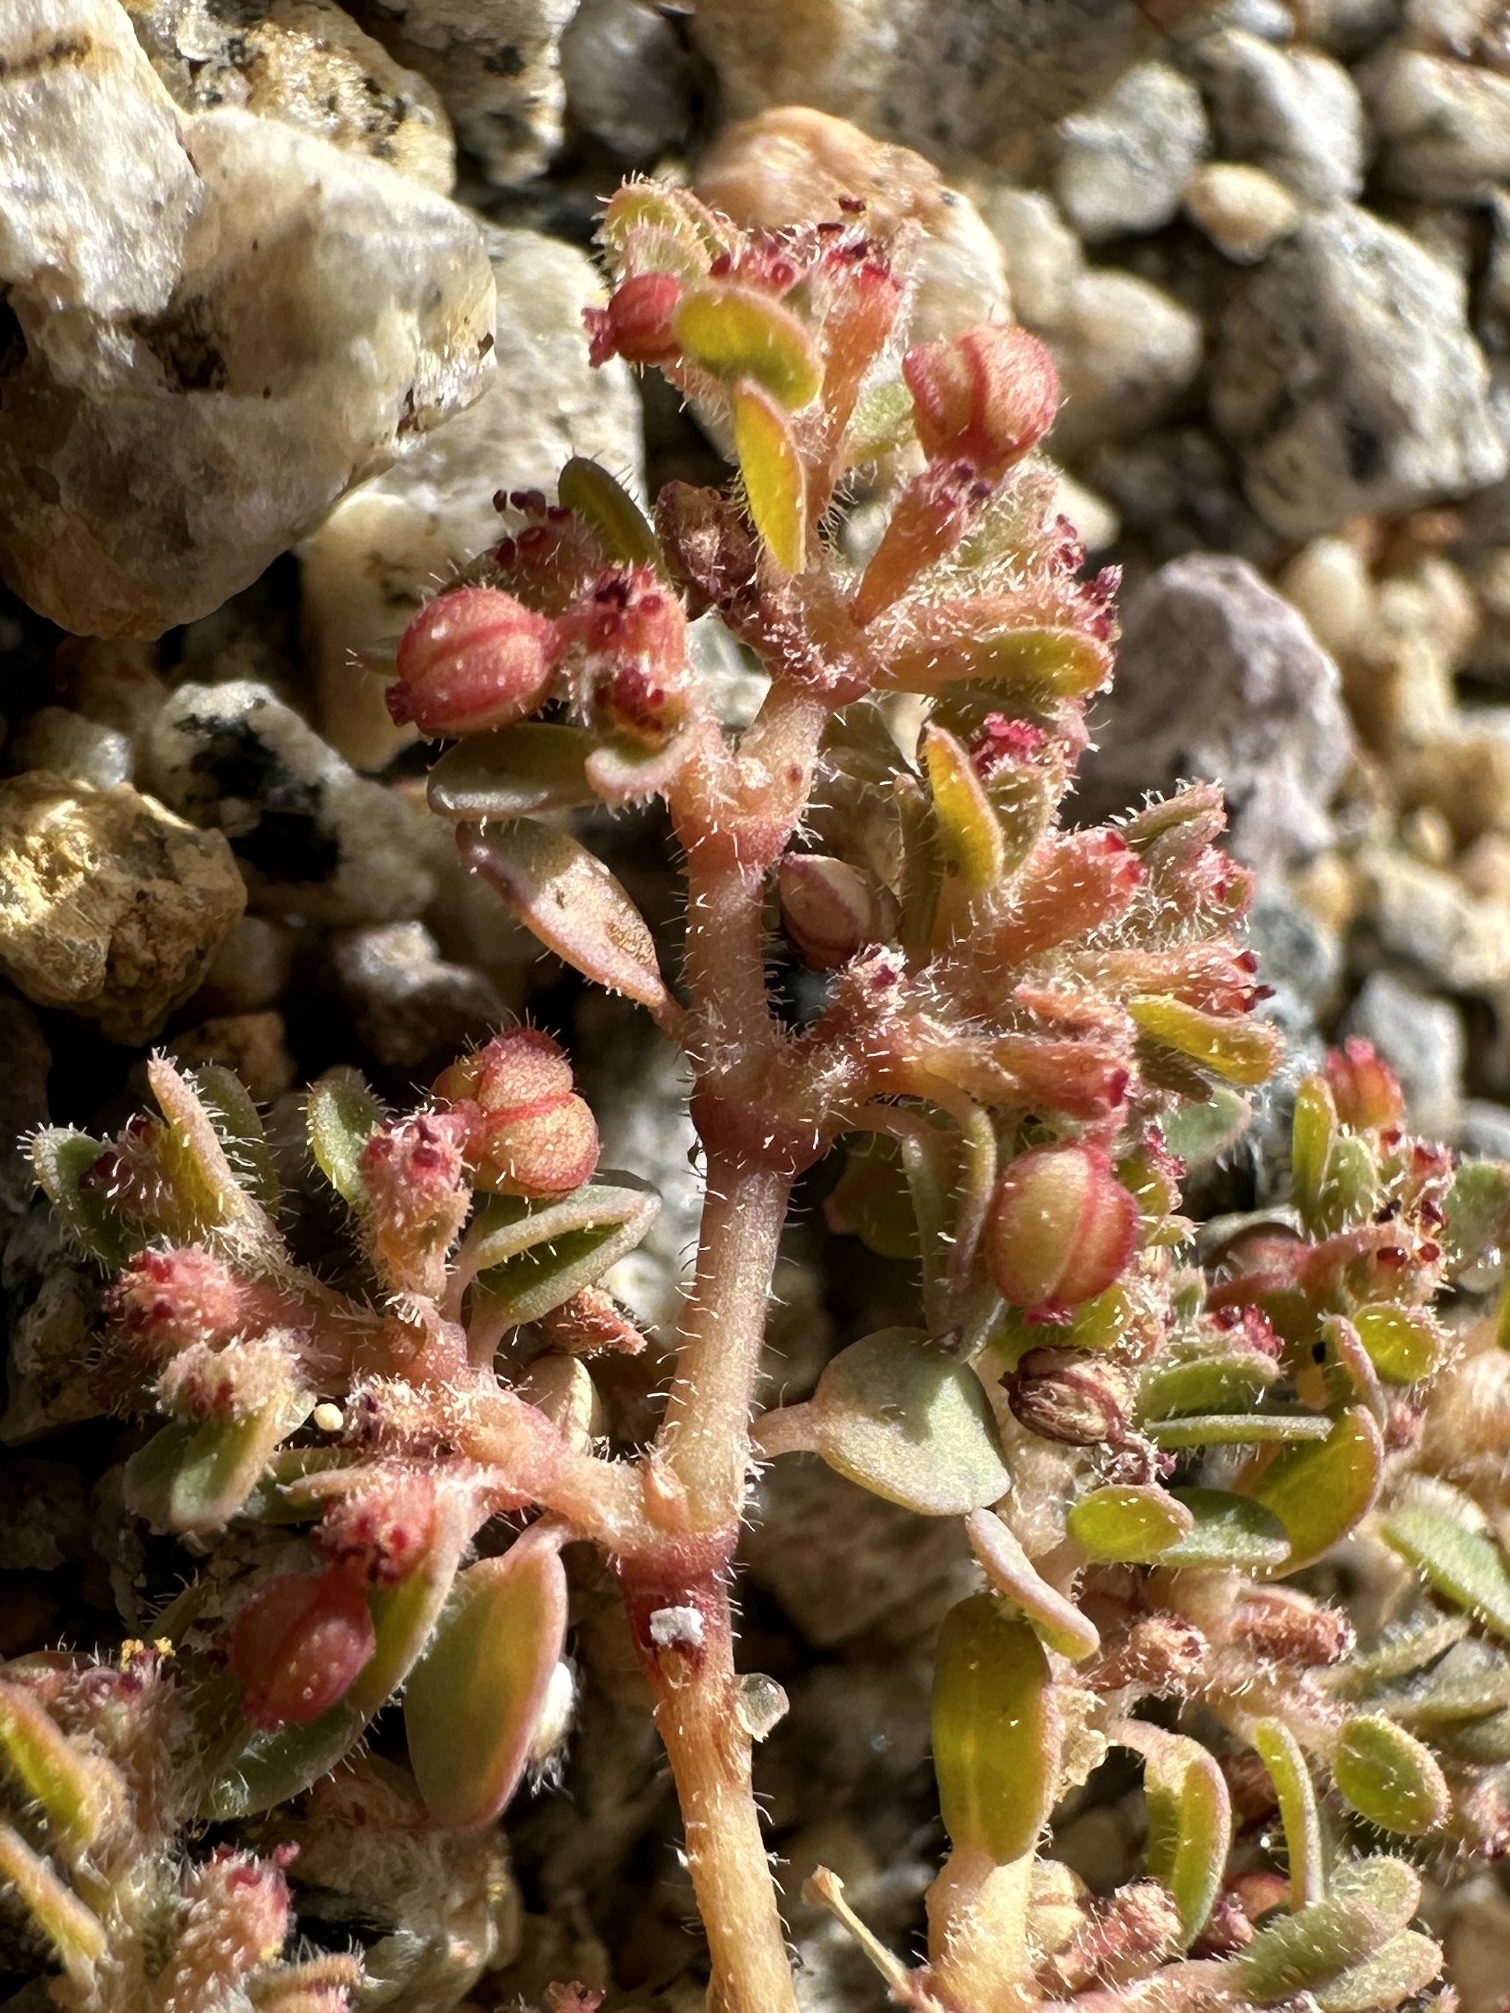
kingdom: Plantae
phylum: Tracheophyta
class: Magnoliopsida
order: Malpighiales
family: Euphorbiaceae
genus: Euphorbia
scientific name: Euphorbia micromera
